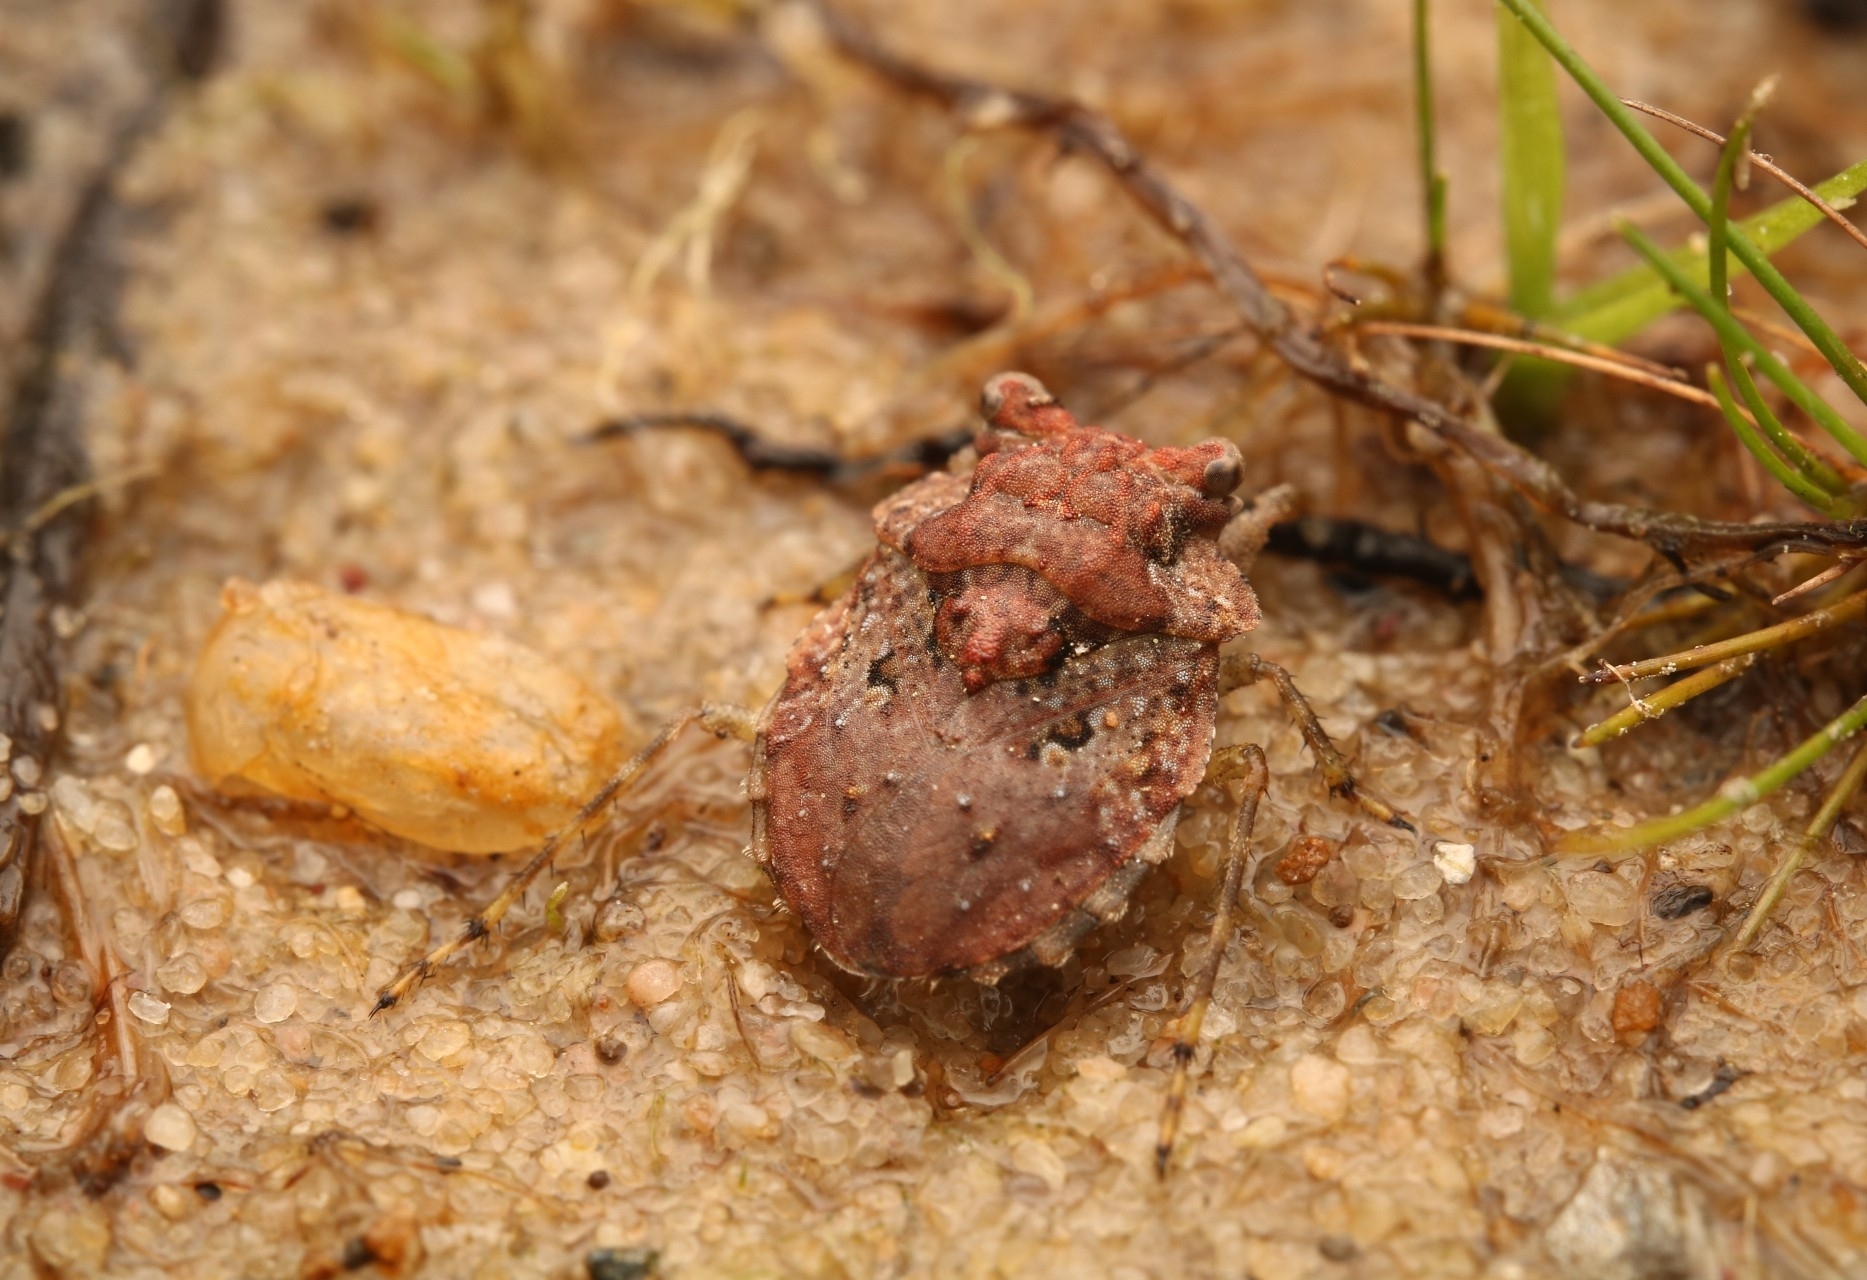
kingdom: Animalia
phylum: Arthropoda
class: Insecta
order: Hemiptera
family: Gelastocoridae
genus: Gelastocoris
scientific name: Gelastocoris oculatus
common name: Toad bug
